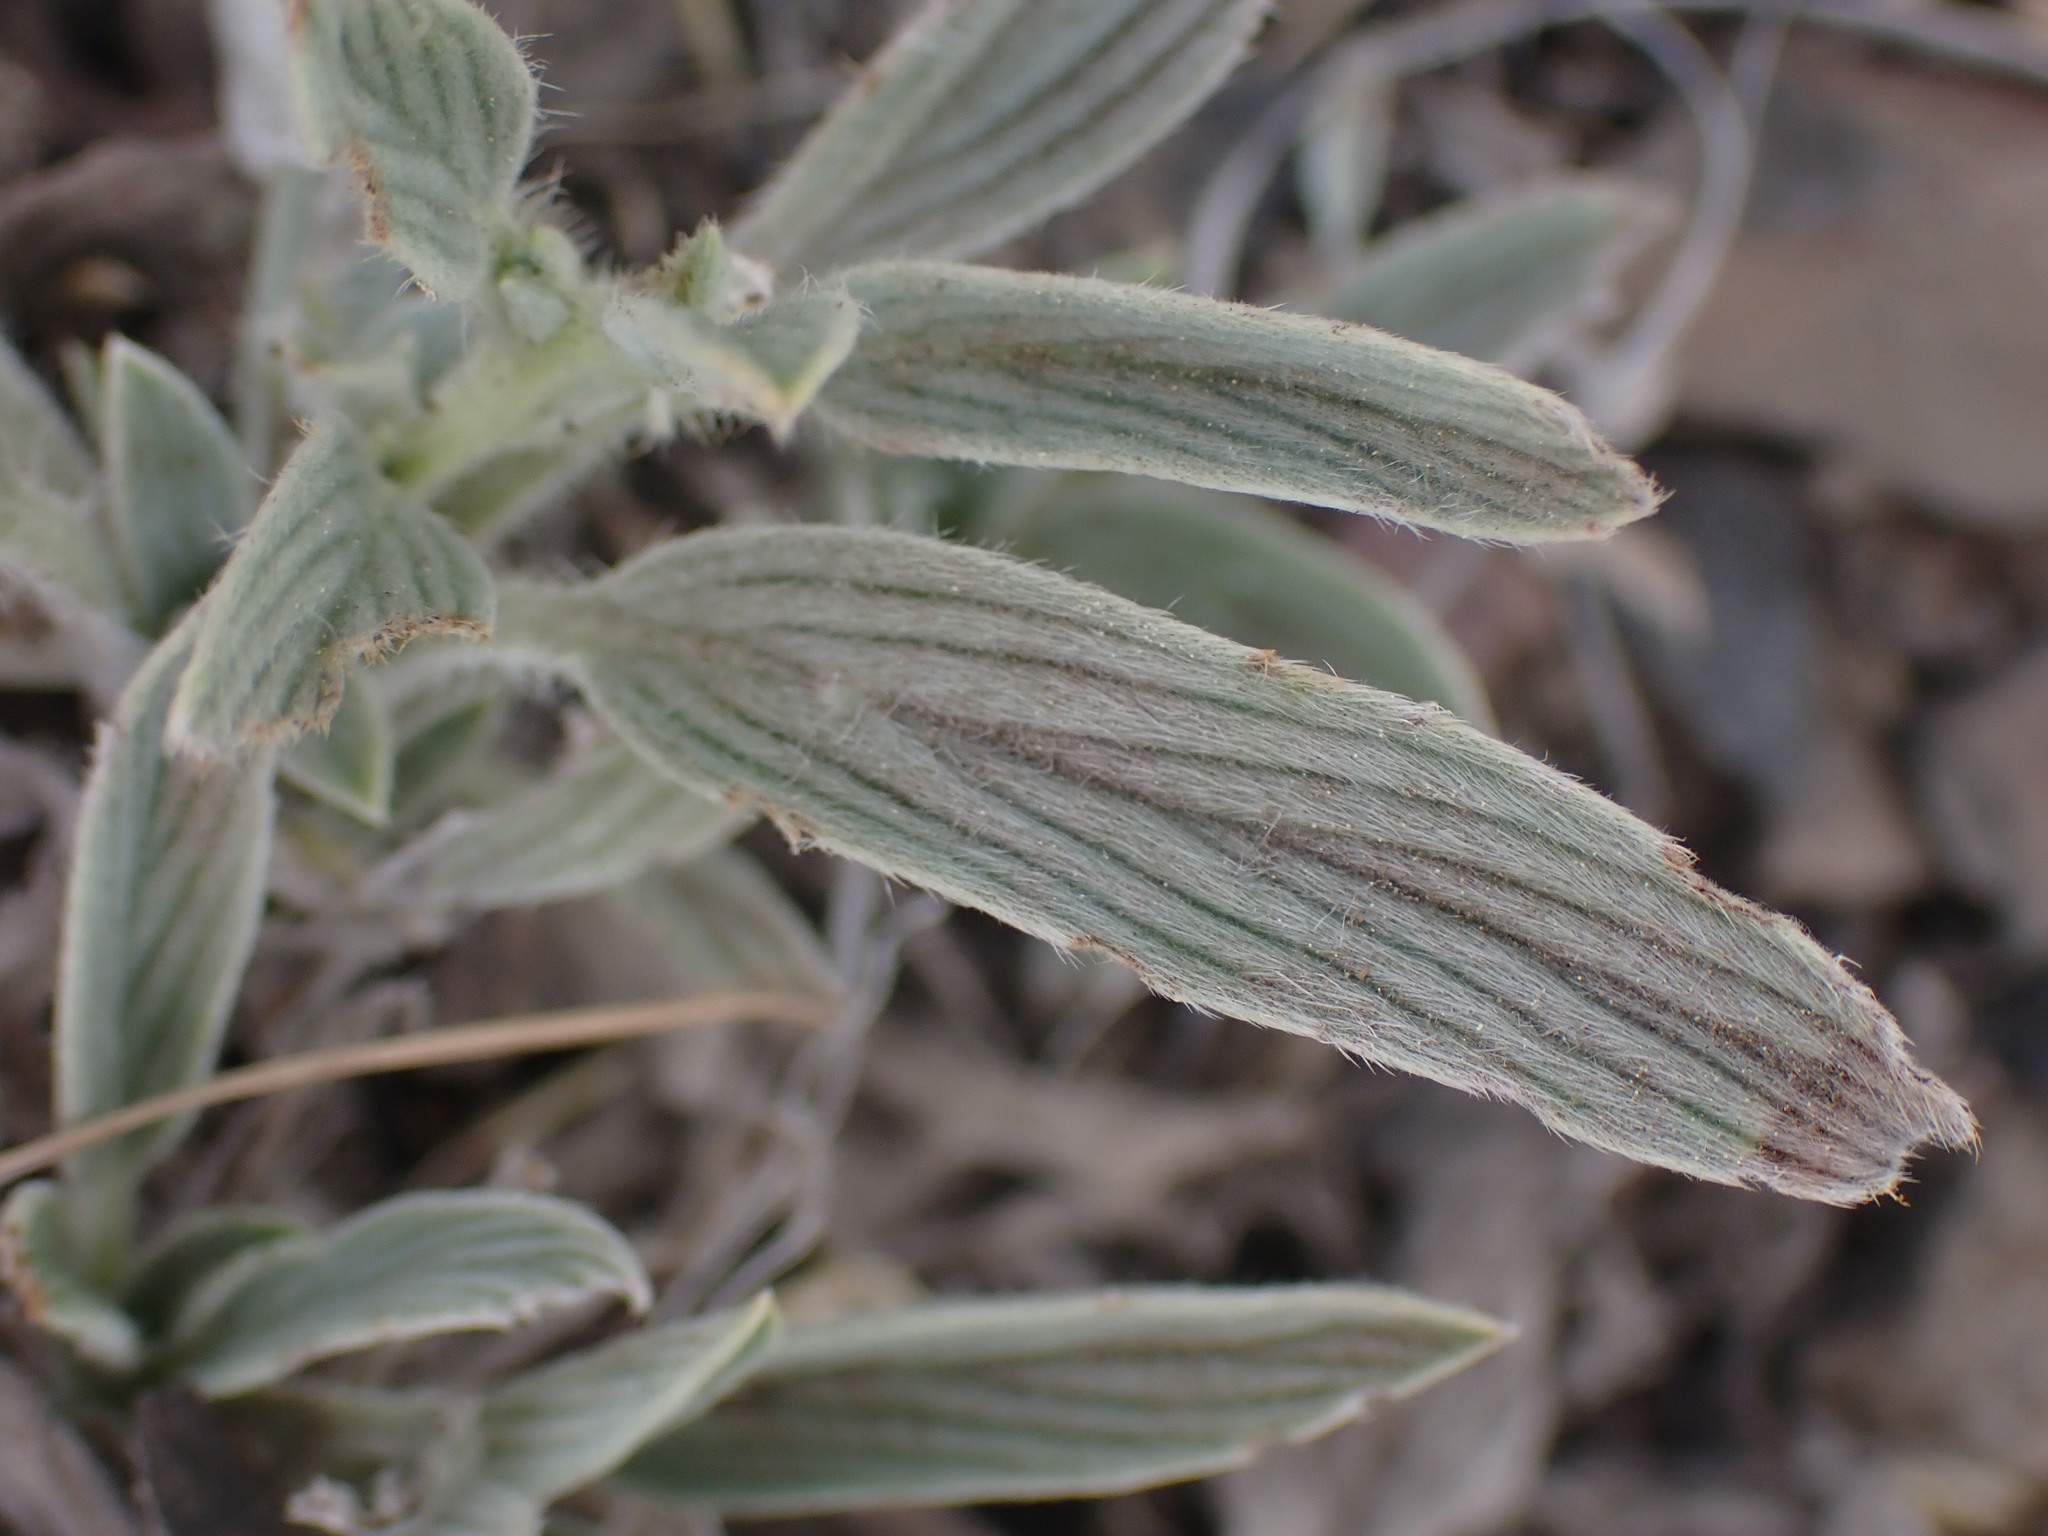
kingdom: Plantae
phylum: Tracheophyta
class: Magnoliopsida
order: Boraginales
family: Hydrophyllaceae
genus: Phacelia
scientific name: Phacelia hastata
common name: Silver-leaved phacelia
